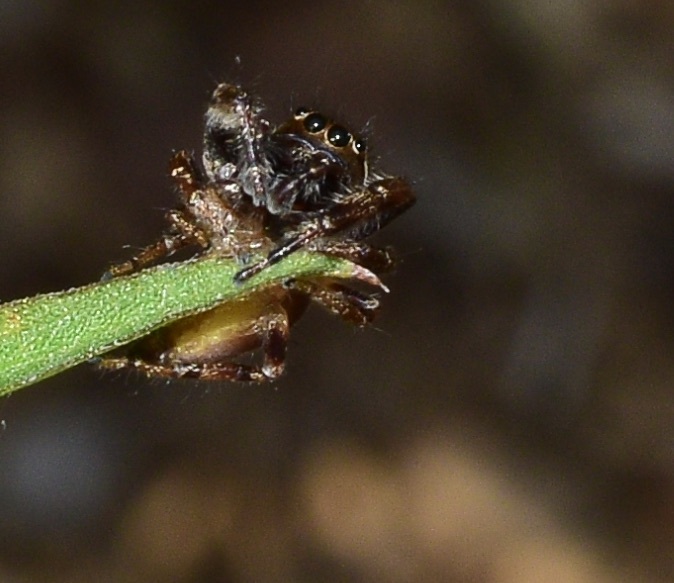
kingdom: Animalia
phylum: Arthropoda
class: Arachnida
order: Araneae
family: Salticidae
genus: Eris
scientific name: Eris militaris
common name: Bronze jumper
